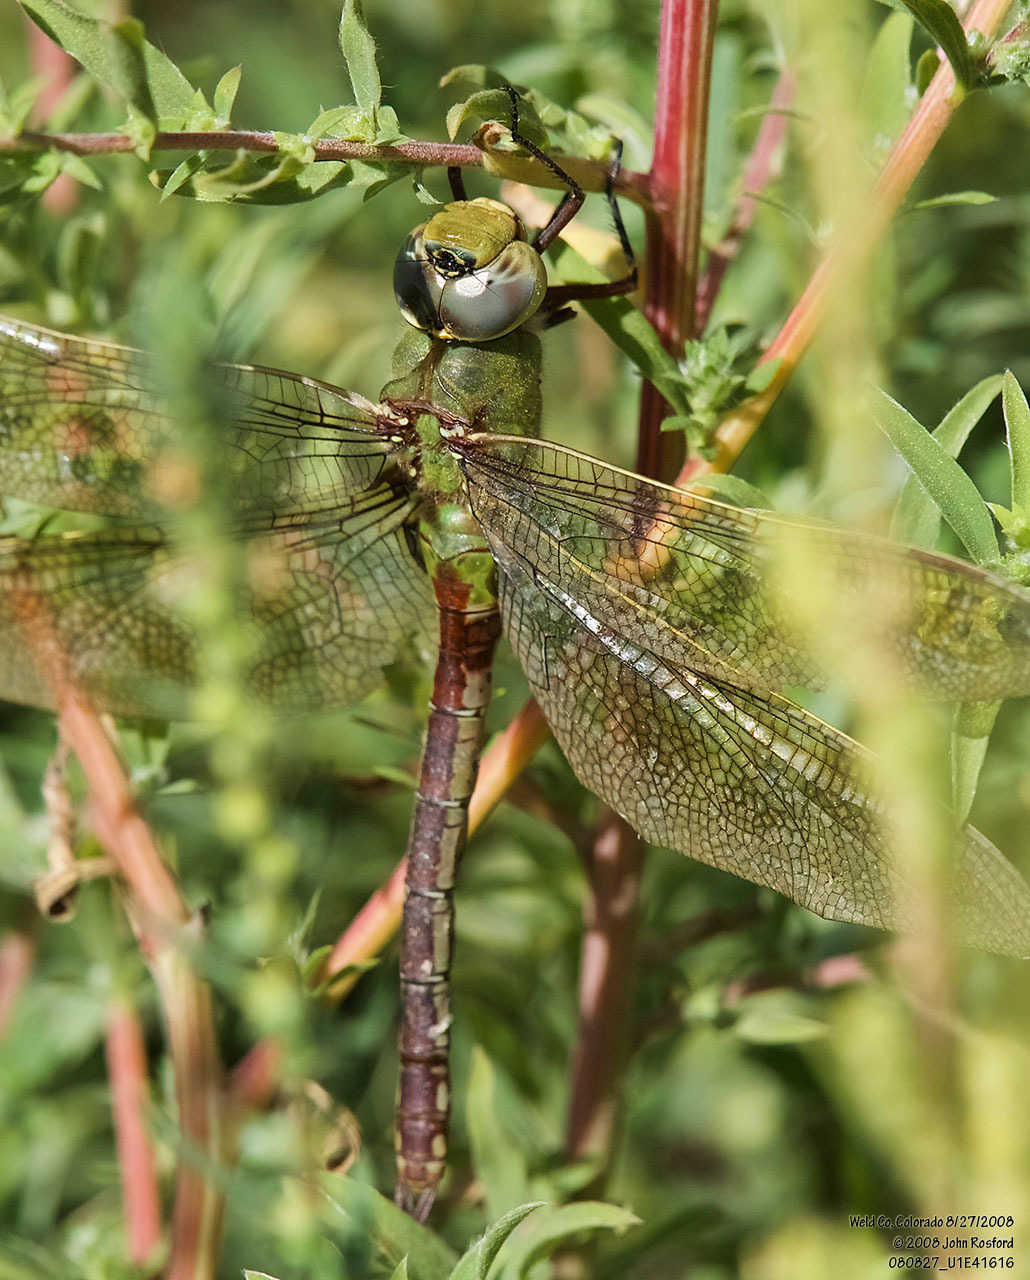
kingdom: Animalia
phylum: Arthropoda
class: Insecta
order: Odonata
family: Aeshnidae
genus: Anax
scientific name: Anax junius
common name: Common green darner
